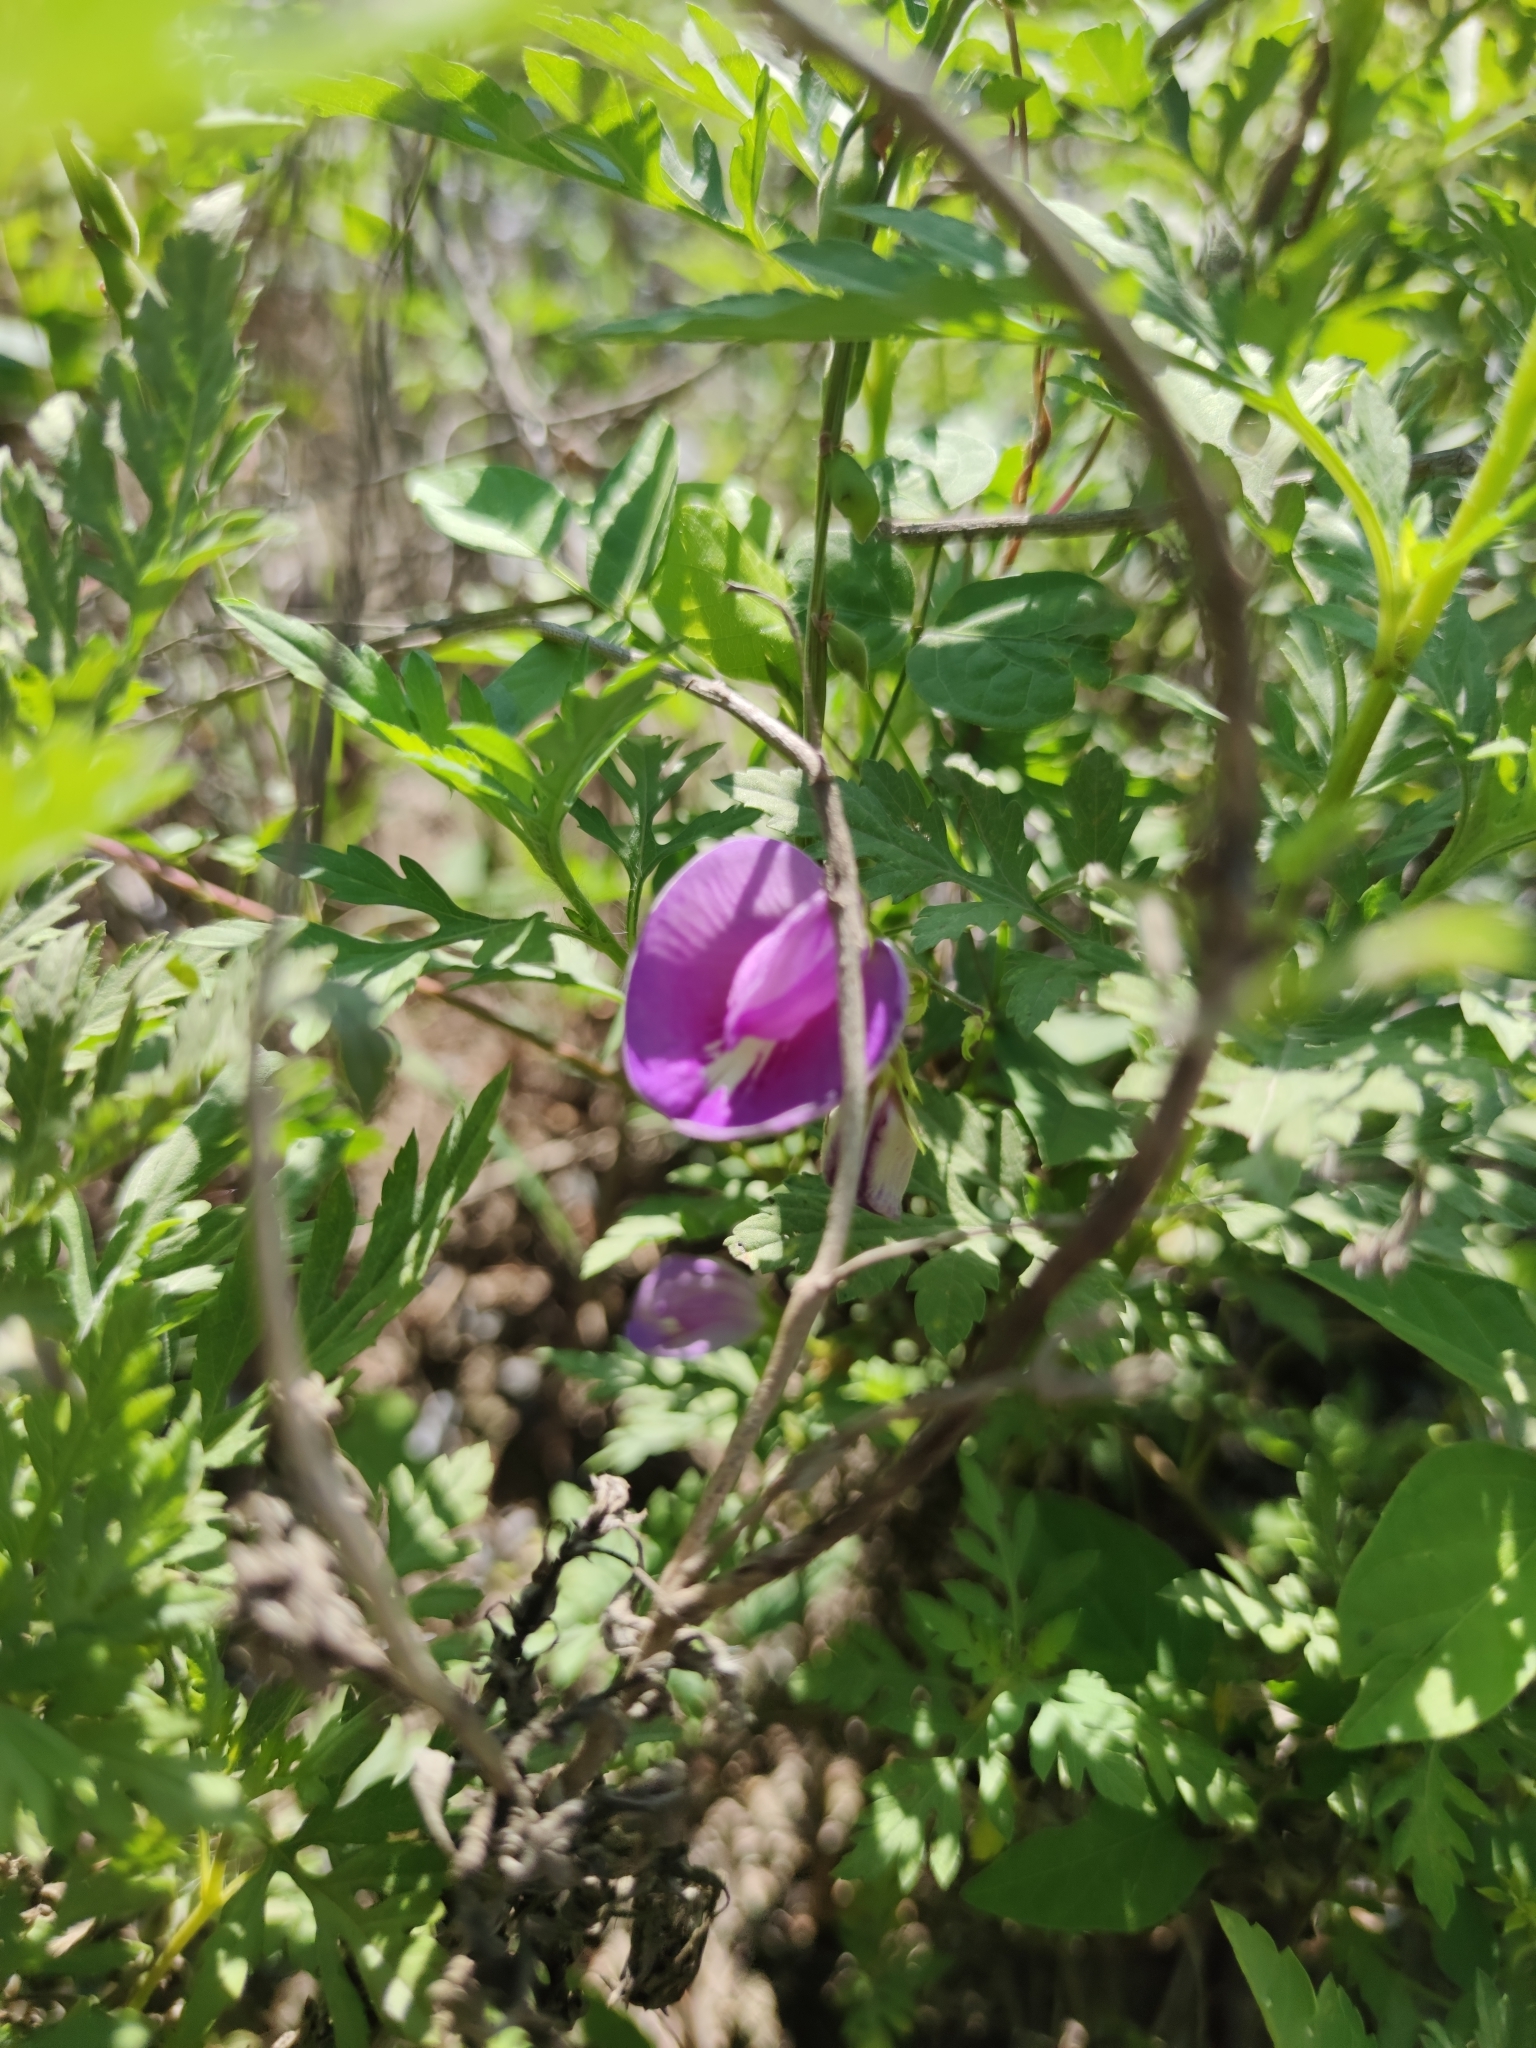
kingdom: Plantae
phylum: Tracheophyta
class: Magnoliopsida
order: Fabales
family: Fabaceae
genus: Centrosema
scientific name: Centrosema virginianum
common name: Butterfly-pea
